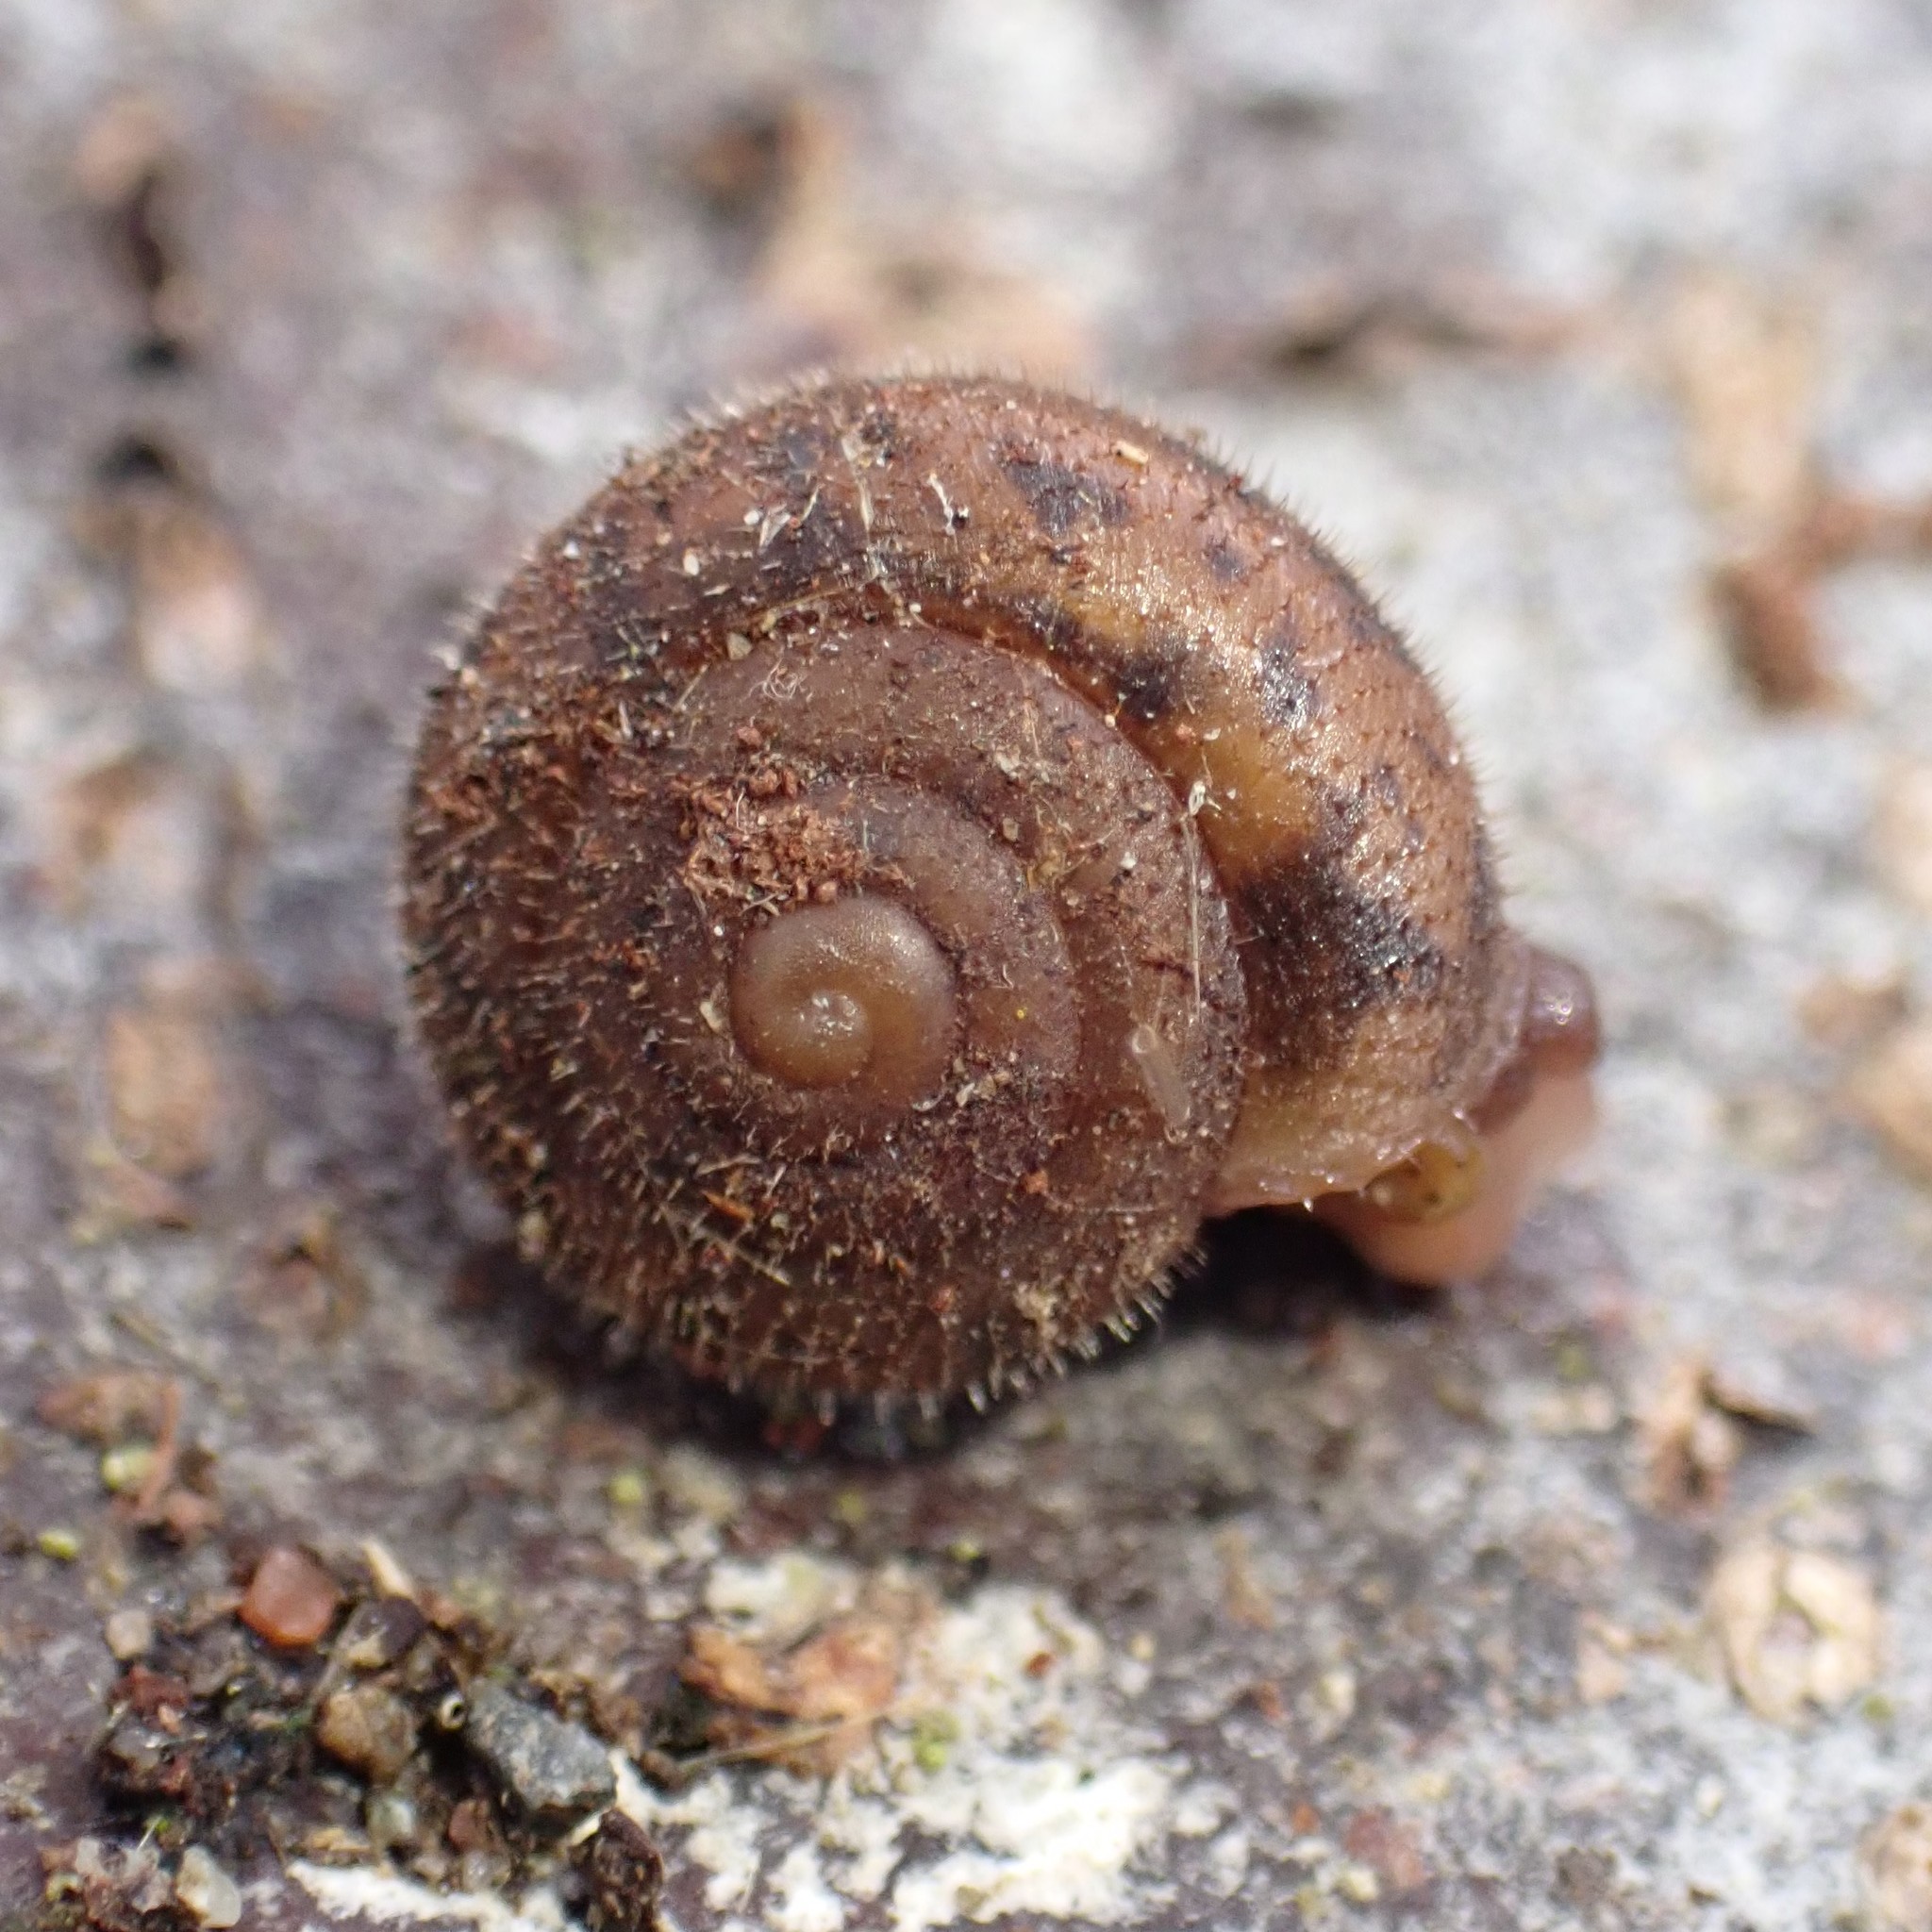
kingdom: Animalia
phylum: Mollusca
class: Gastropoda
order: Stylommatophora
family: Polygyridae
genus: Vespericola
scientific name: Vespericola columbianus
